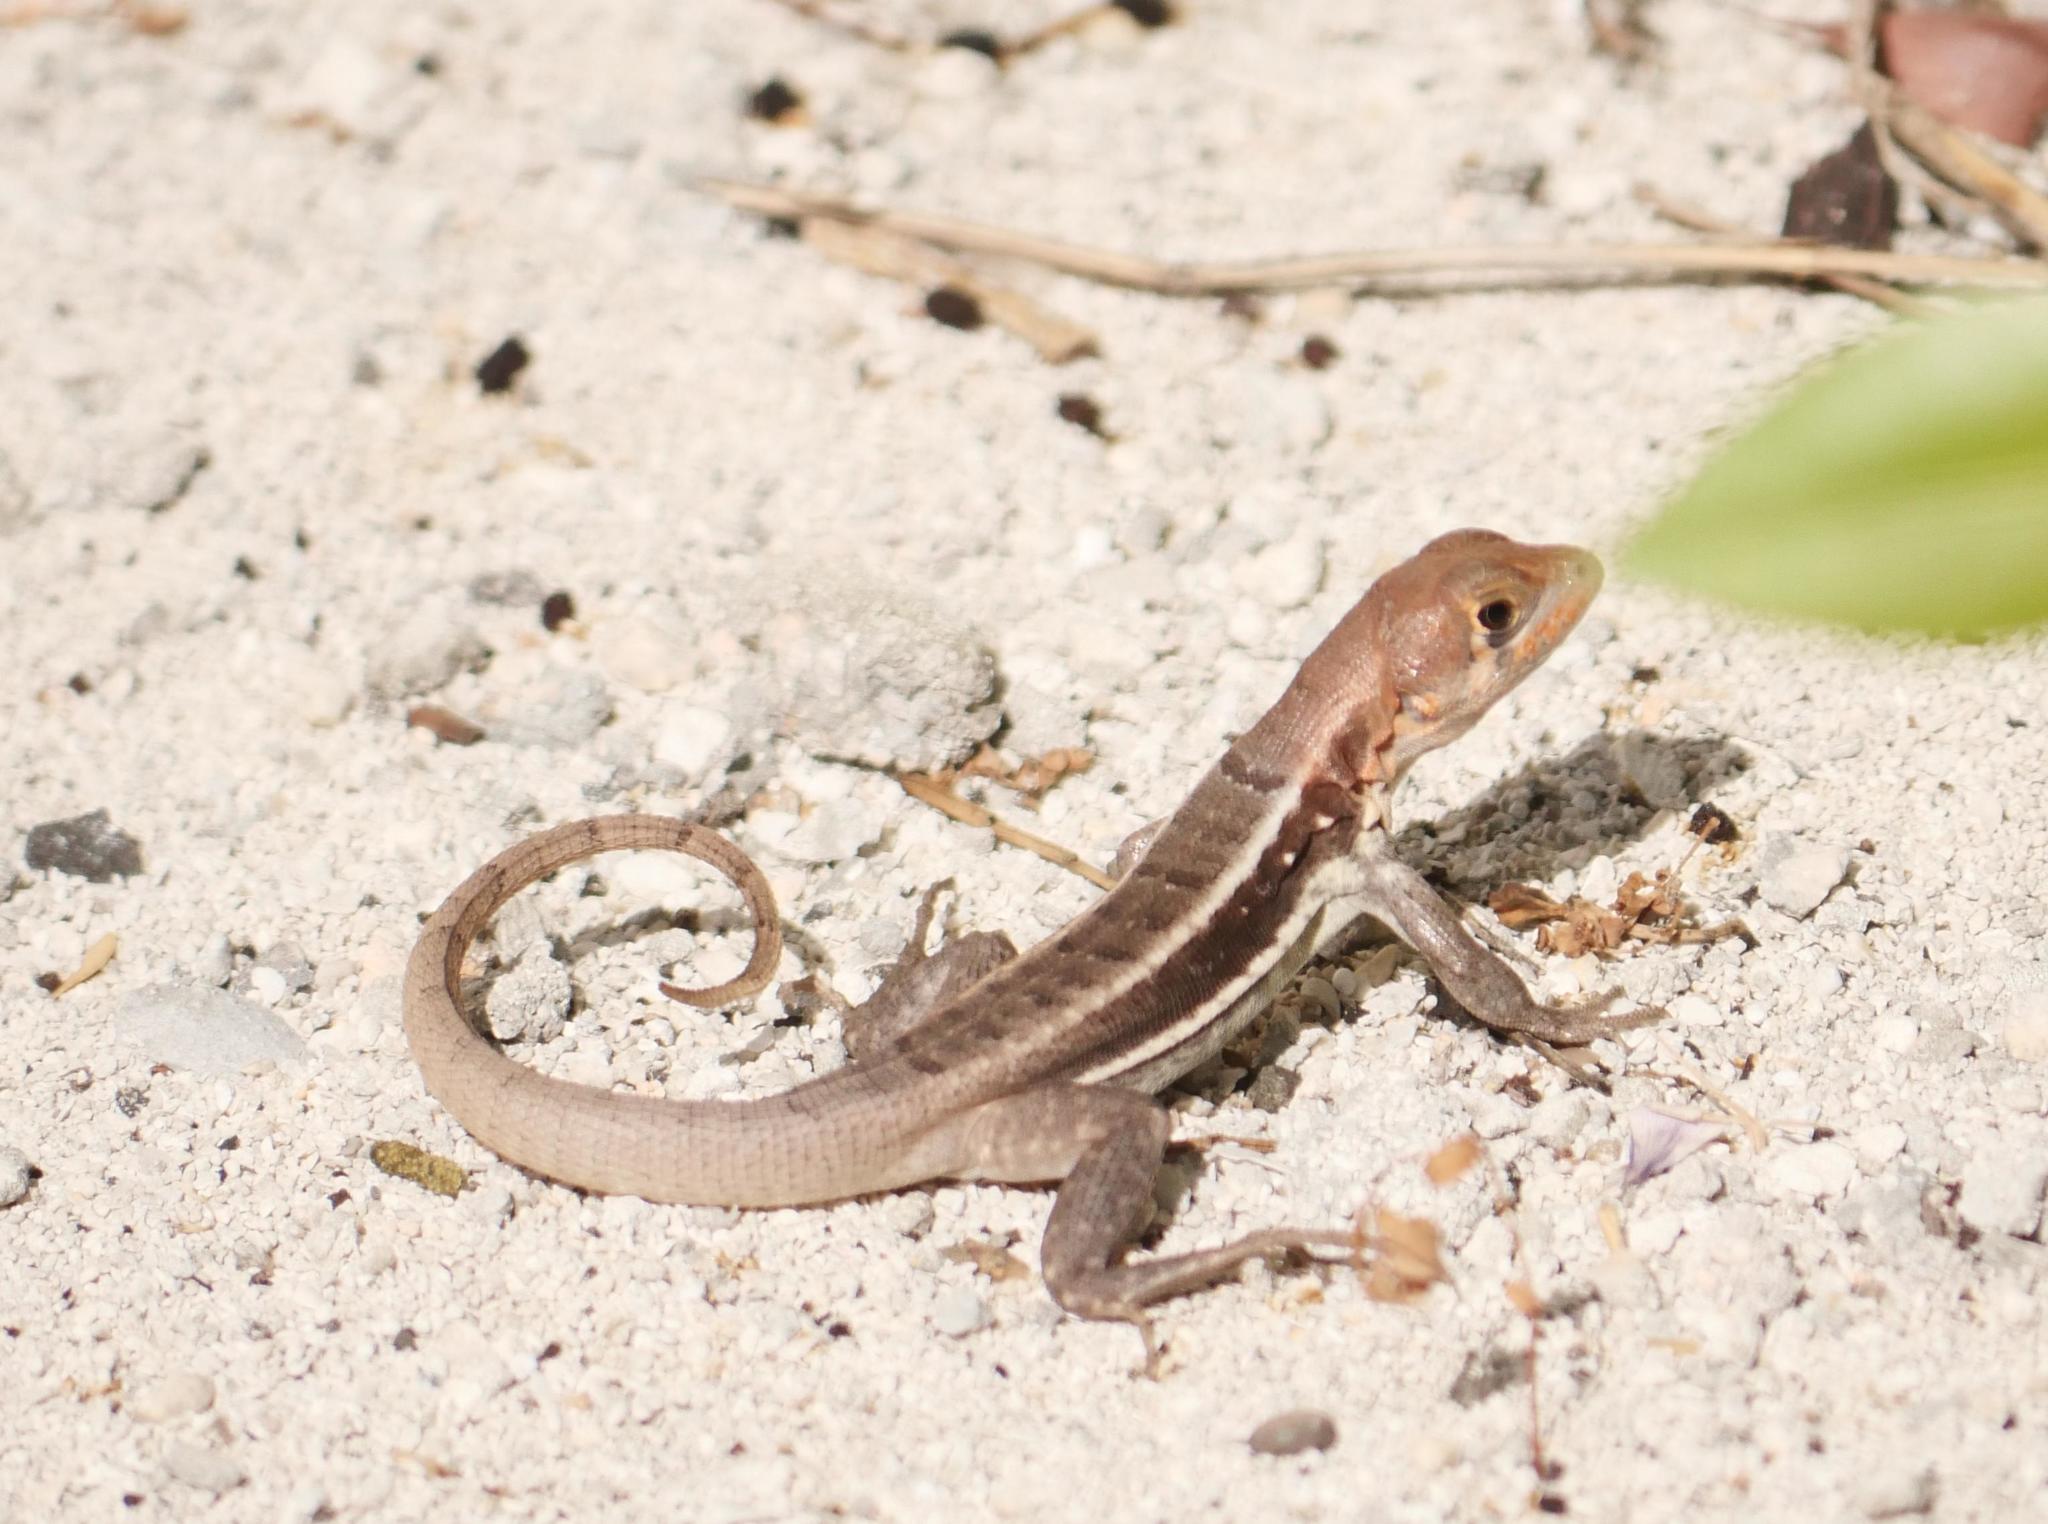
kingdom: Animalia
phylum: Chordata
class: Squamata
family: Leiocephalidae
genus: Leiocephalus
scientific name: Leiocephalus psammodromus
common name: Bastion cay curlytail lizard
